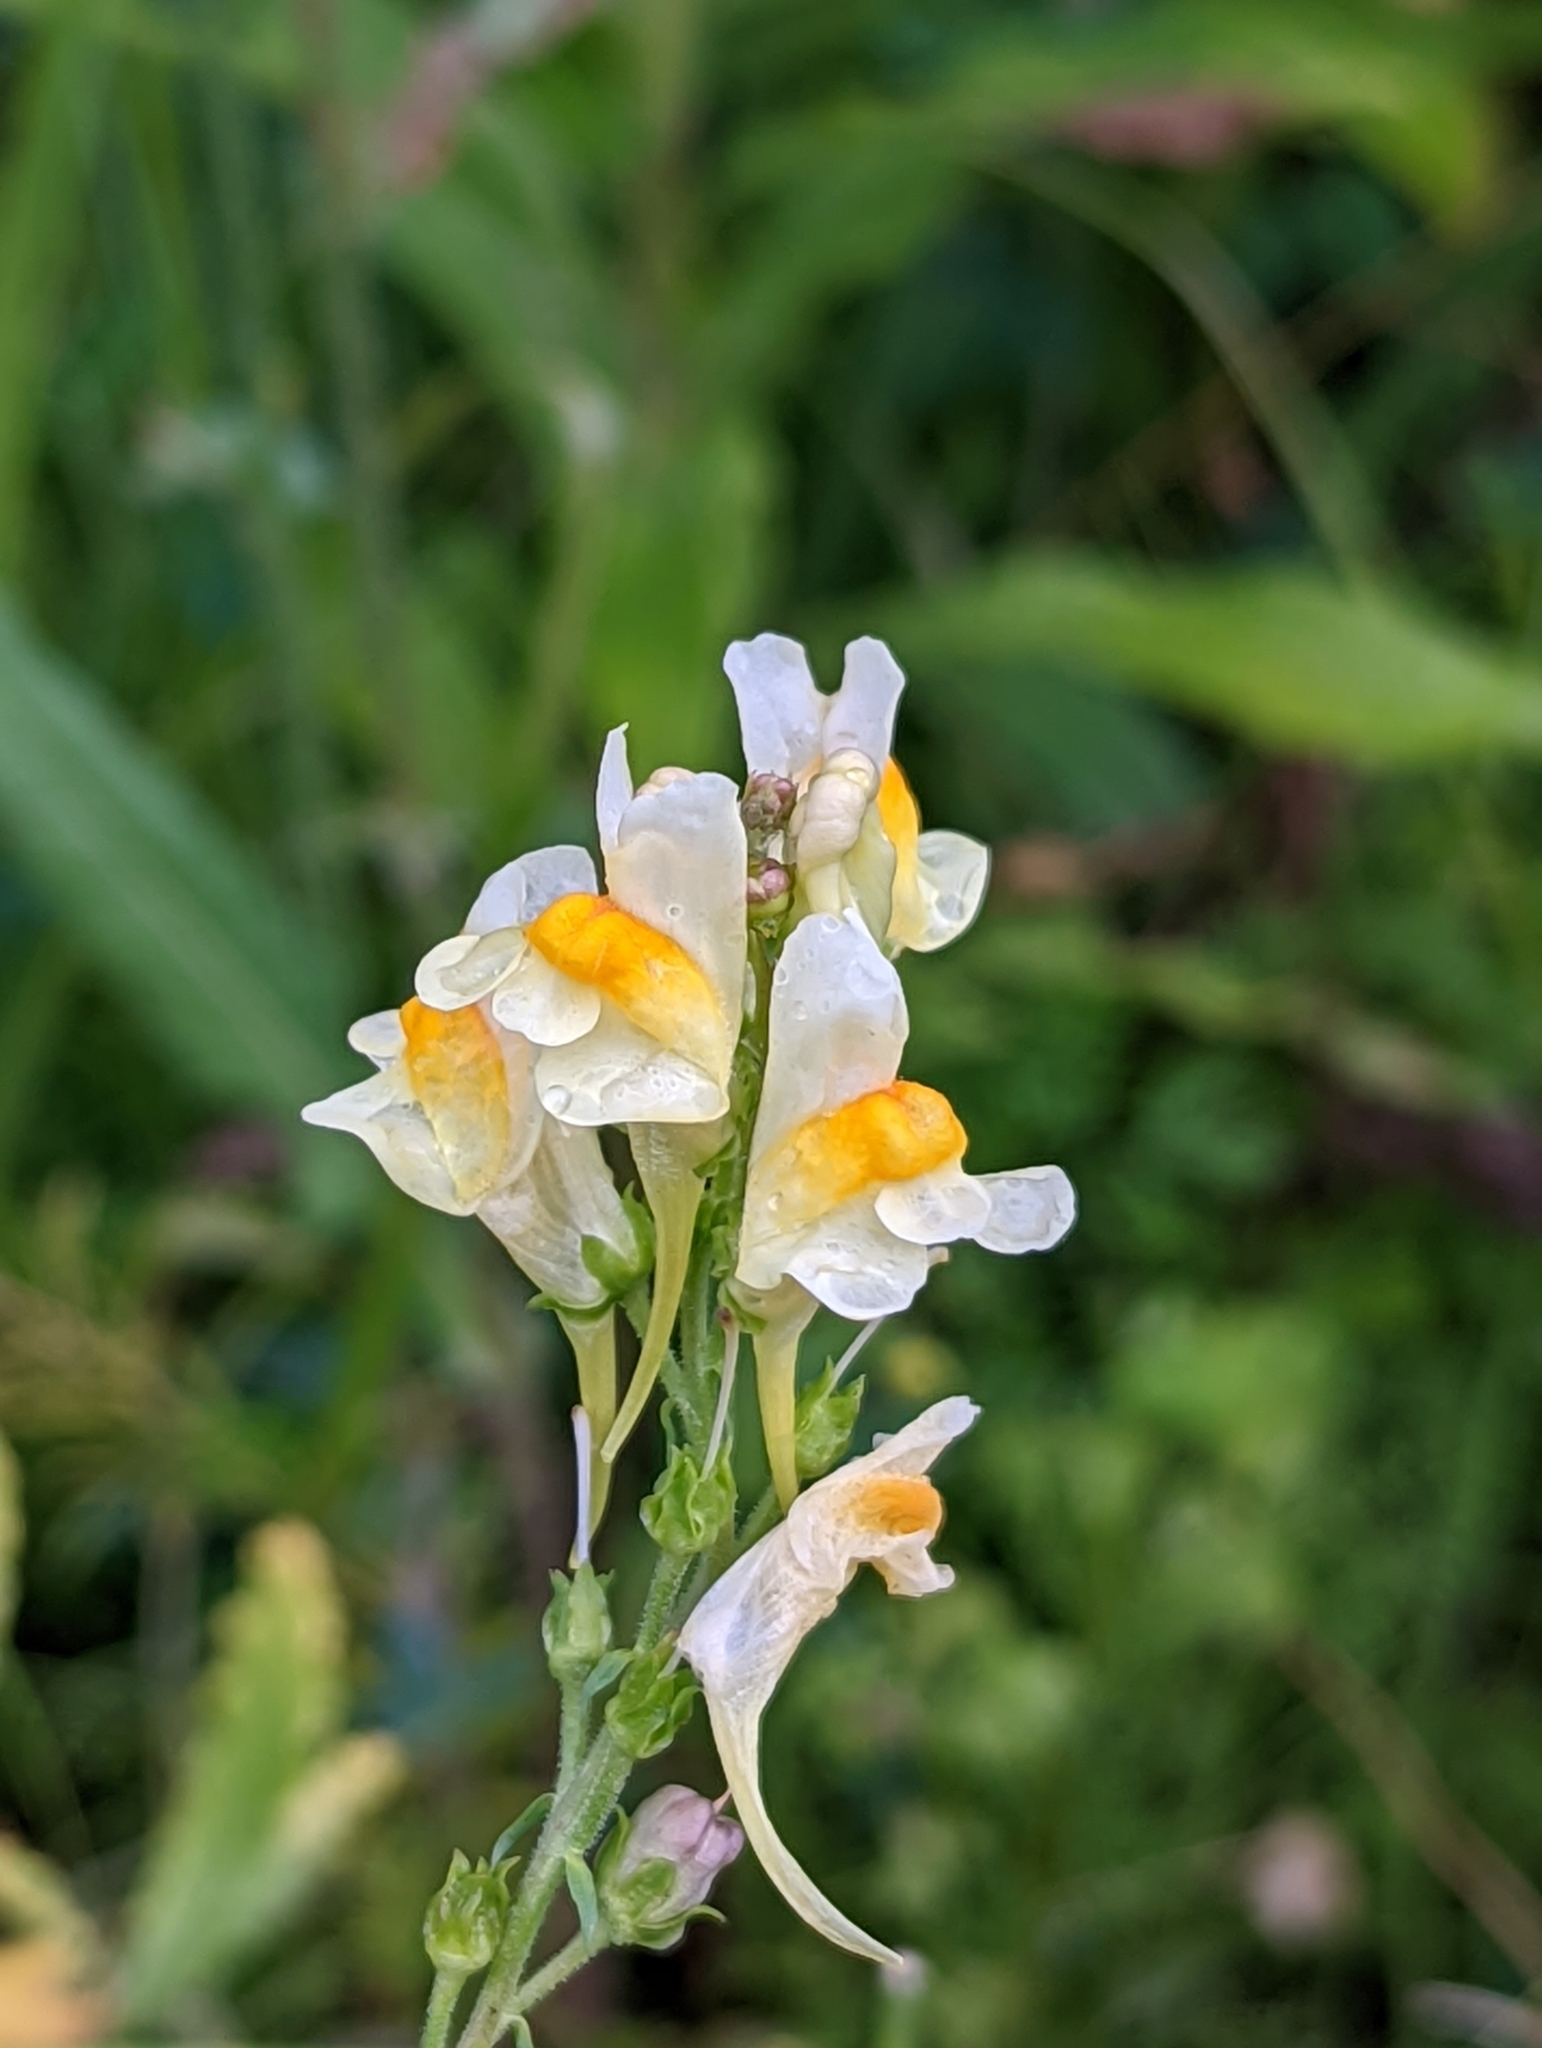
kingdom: Plantae
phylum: Tracheophyta
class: Magnoliopsida
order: Lamiales
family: Plantaginaceae
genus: Linaria
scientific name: Linaria vulgaris
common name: Butter and eggs
